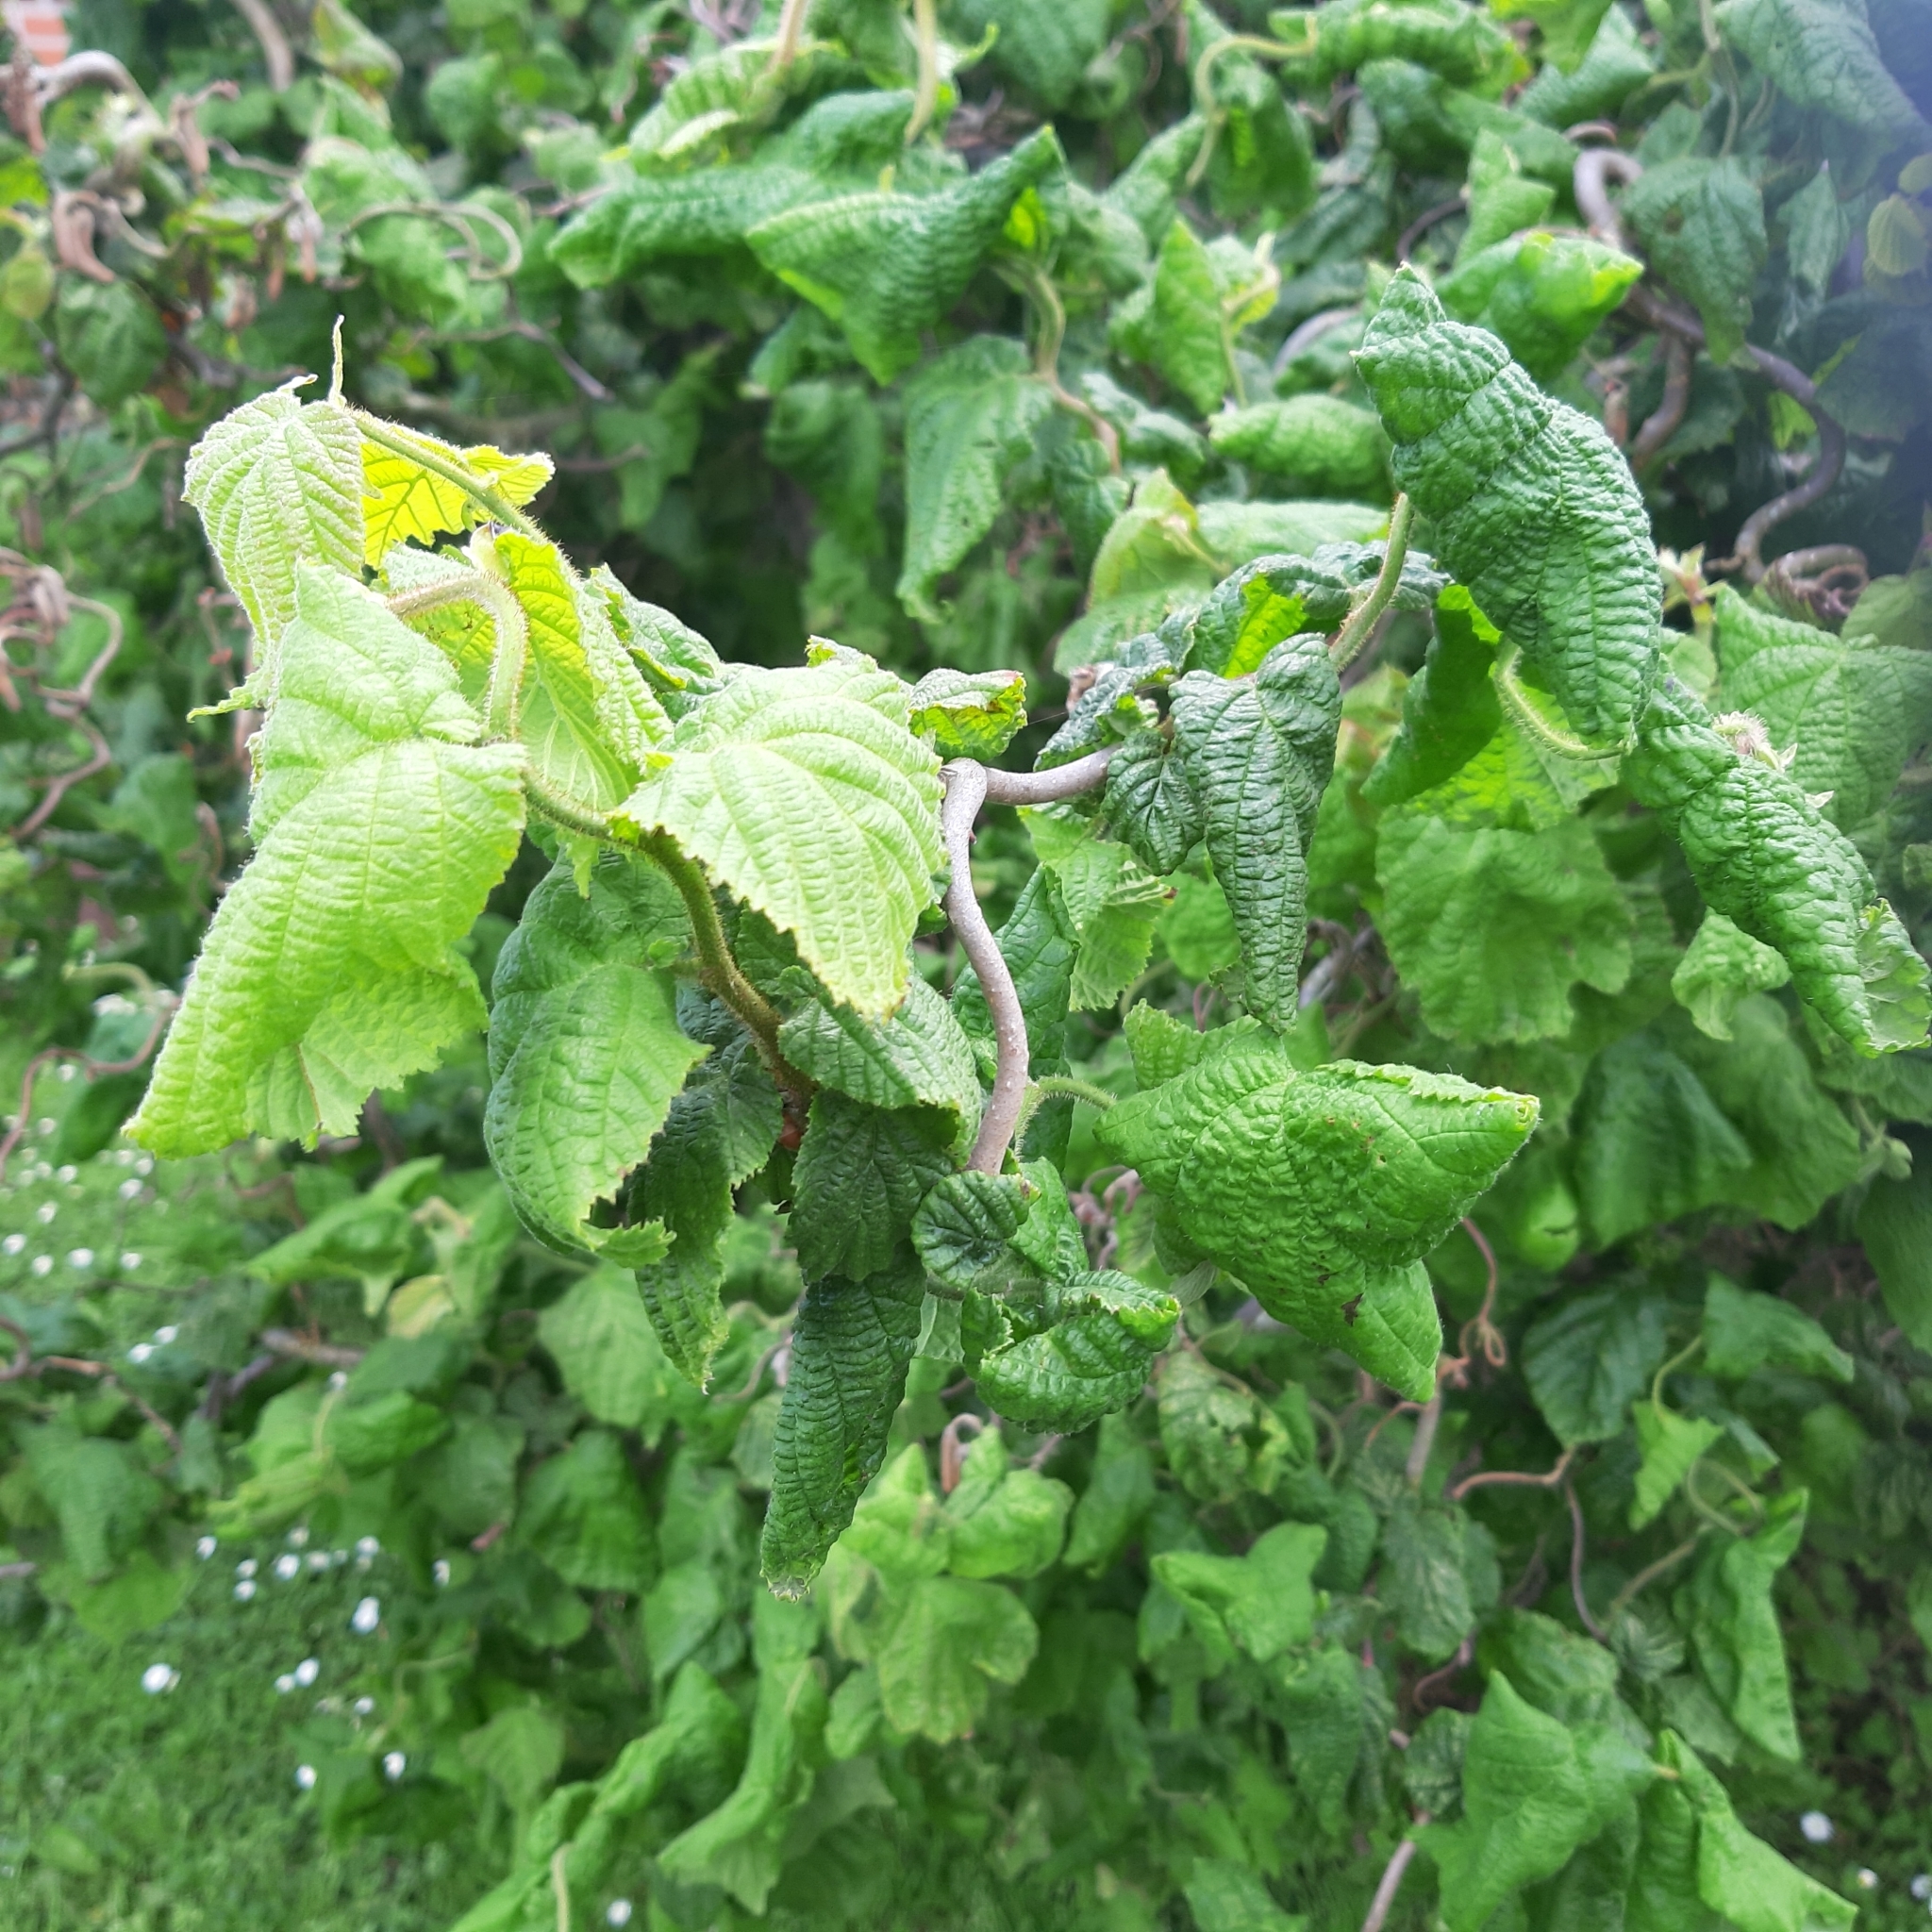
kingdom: Plantae
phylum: Tracheophyta
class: Magnoliopsida
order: Fagales
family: Betulaceae
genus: Corylus
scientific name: Corylus avellana
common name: European hazel
